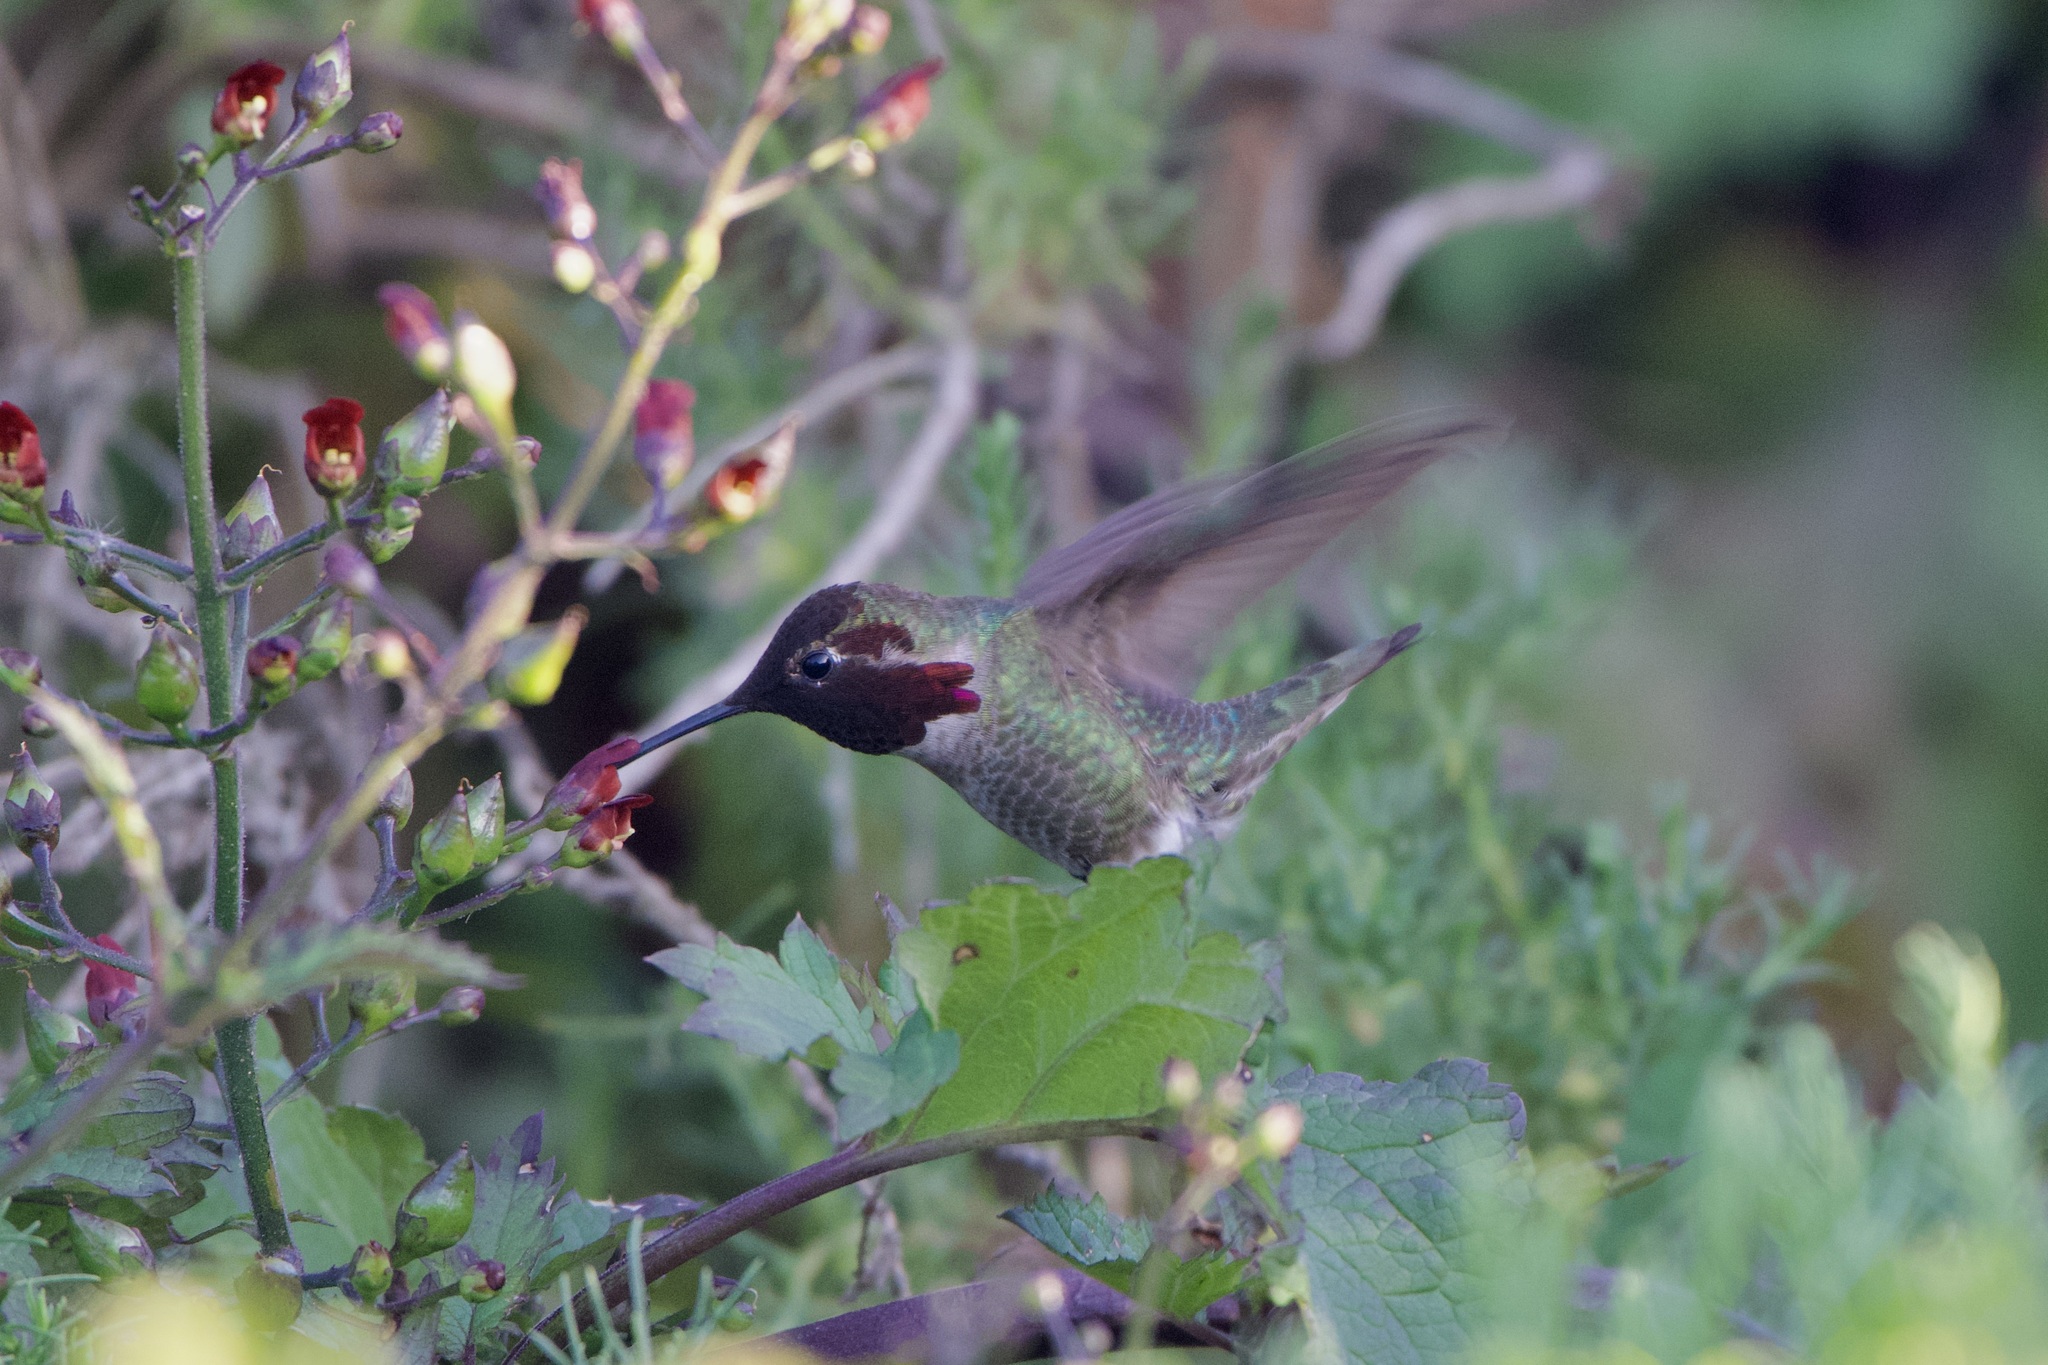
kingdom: Animalia
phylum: Chordata
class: Aves
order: Apodiformes
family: Trochilidae
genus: Calypte
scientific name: Calypte anna
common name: Anna's hummingbird
